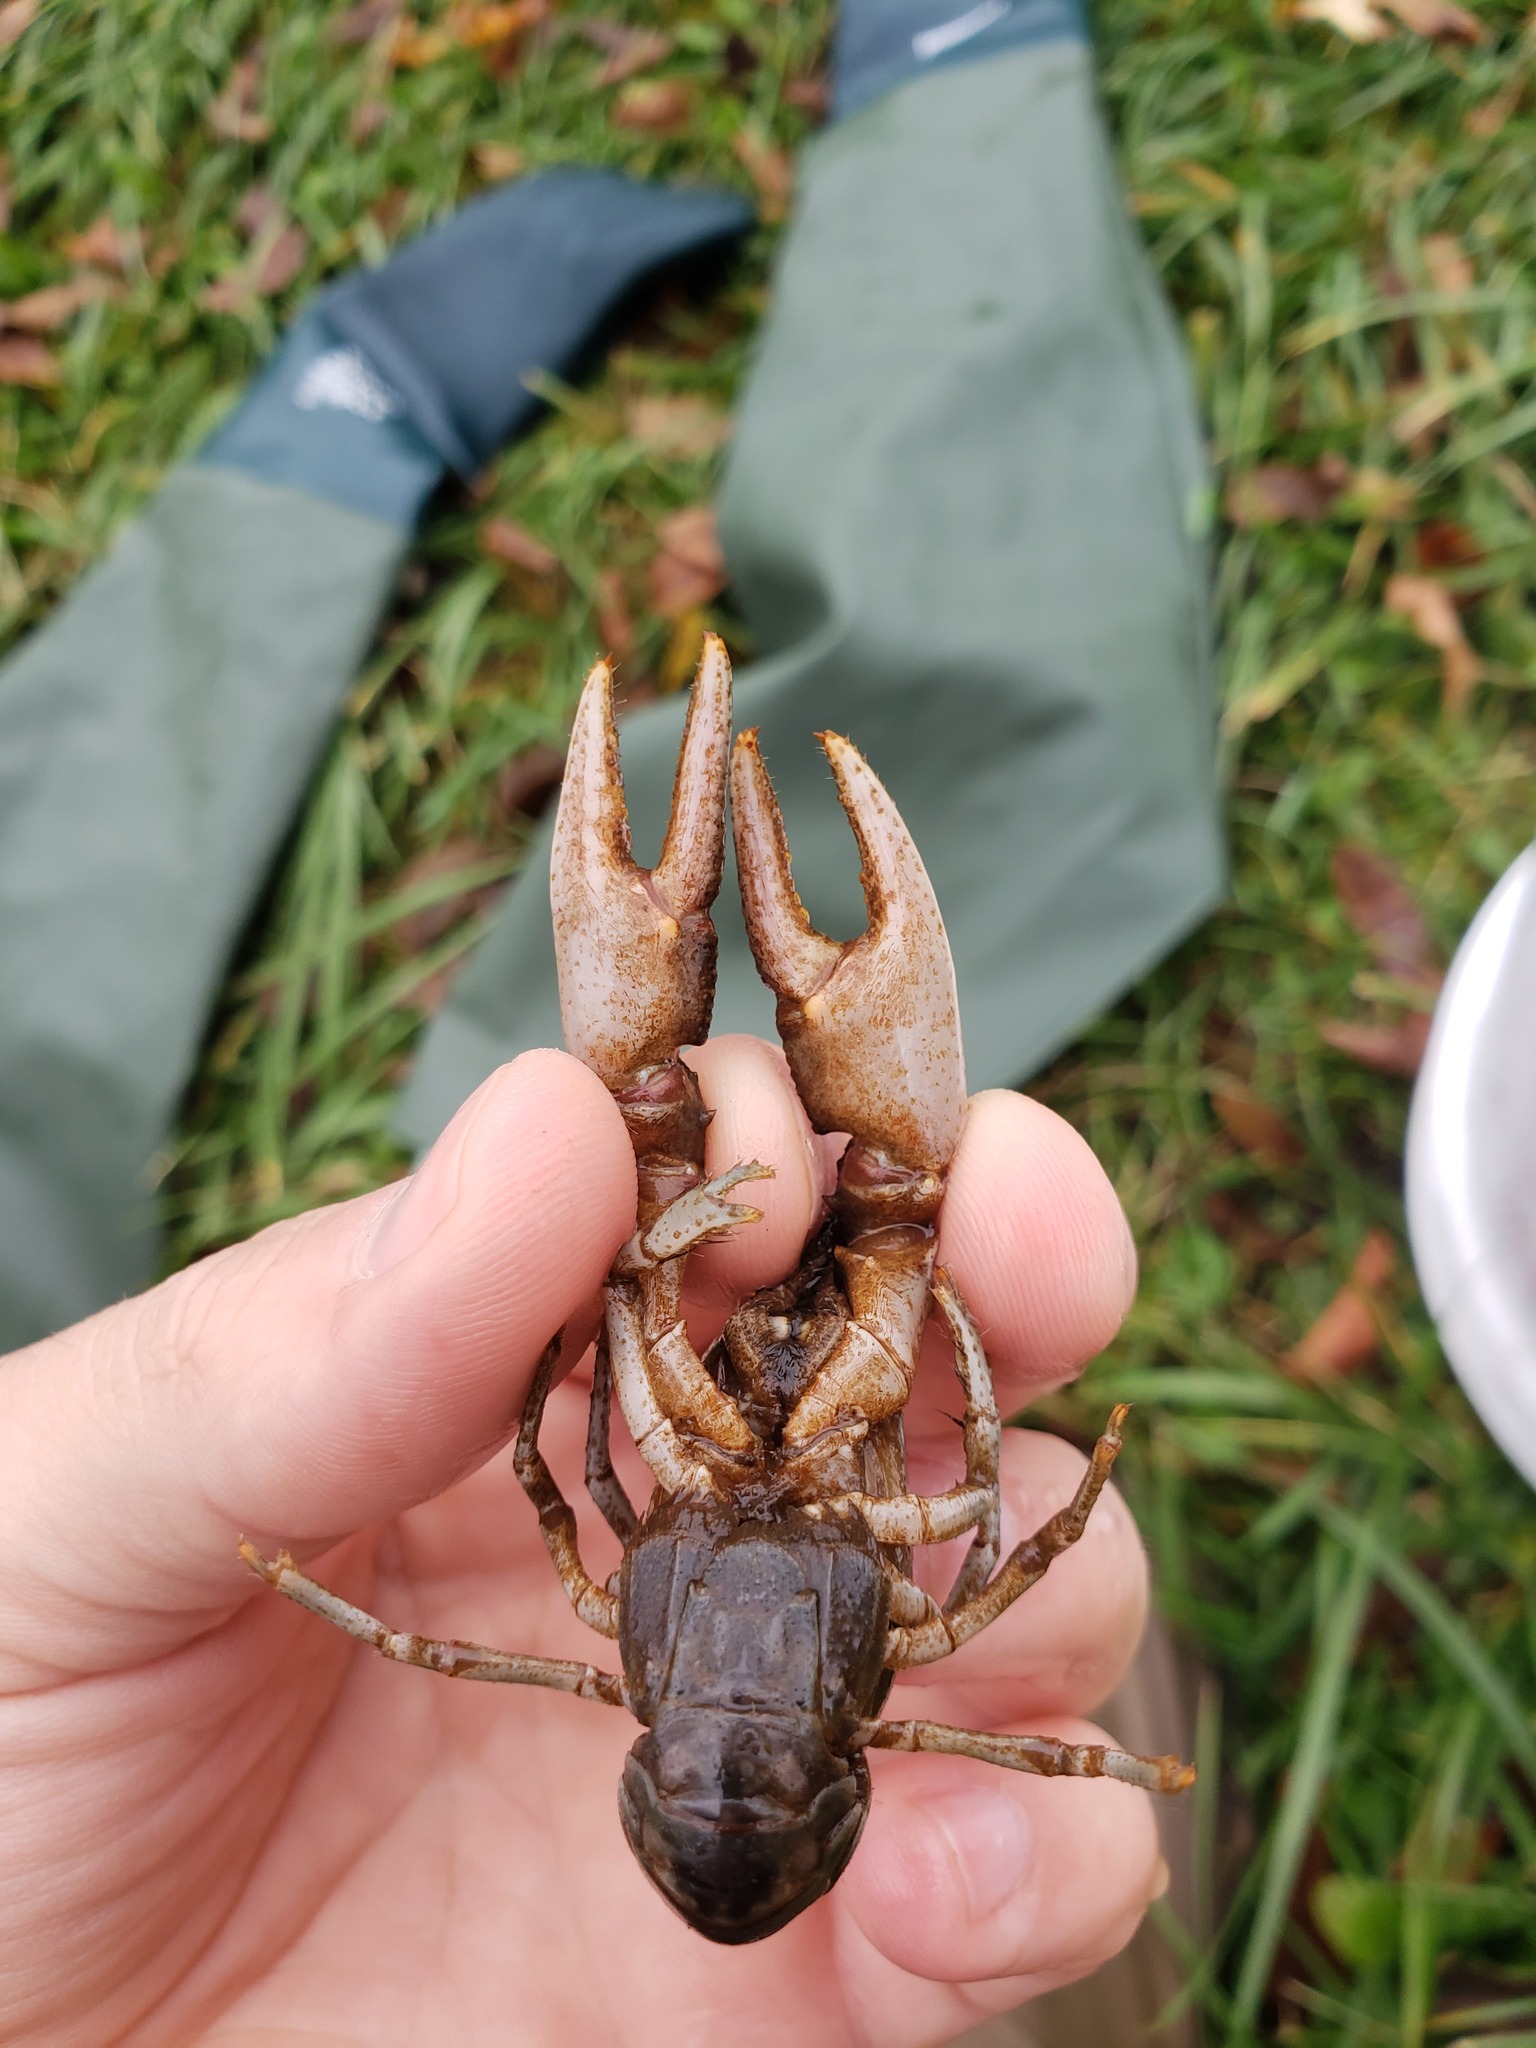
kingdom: Animalia
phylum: Arthropoda
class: Malacostraca
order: Decapoda
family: Cambaridae
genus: Faxonius
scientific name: Faxonius propinquus
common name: Northern clearwater crayfish
